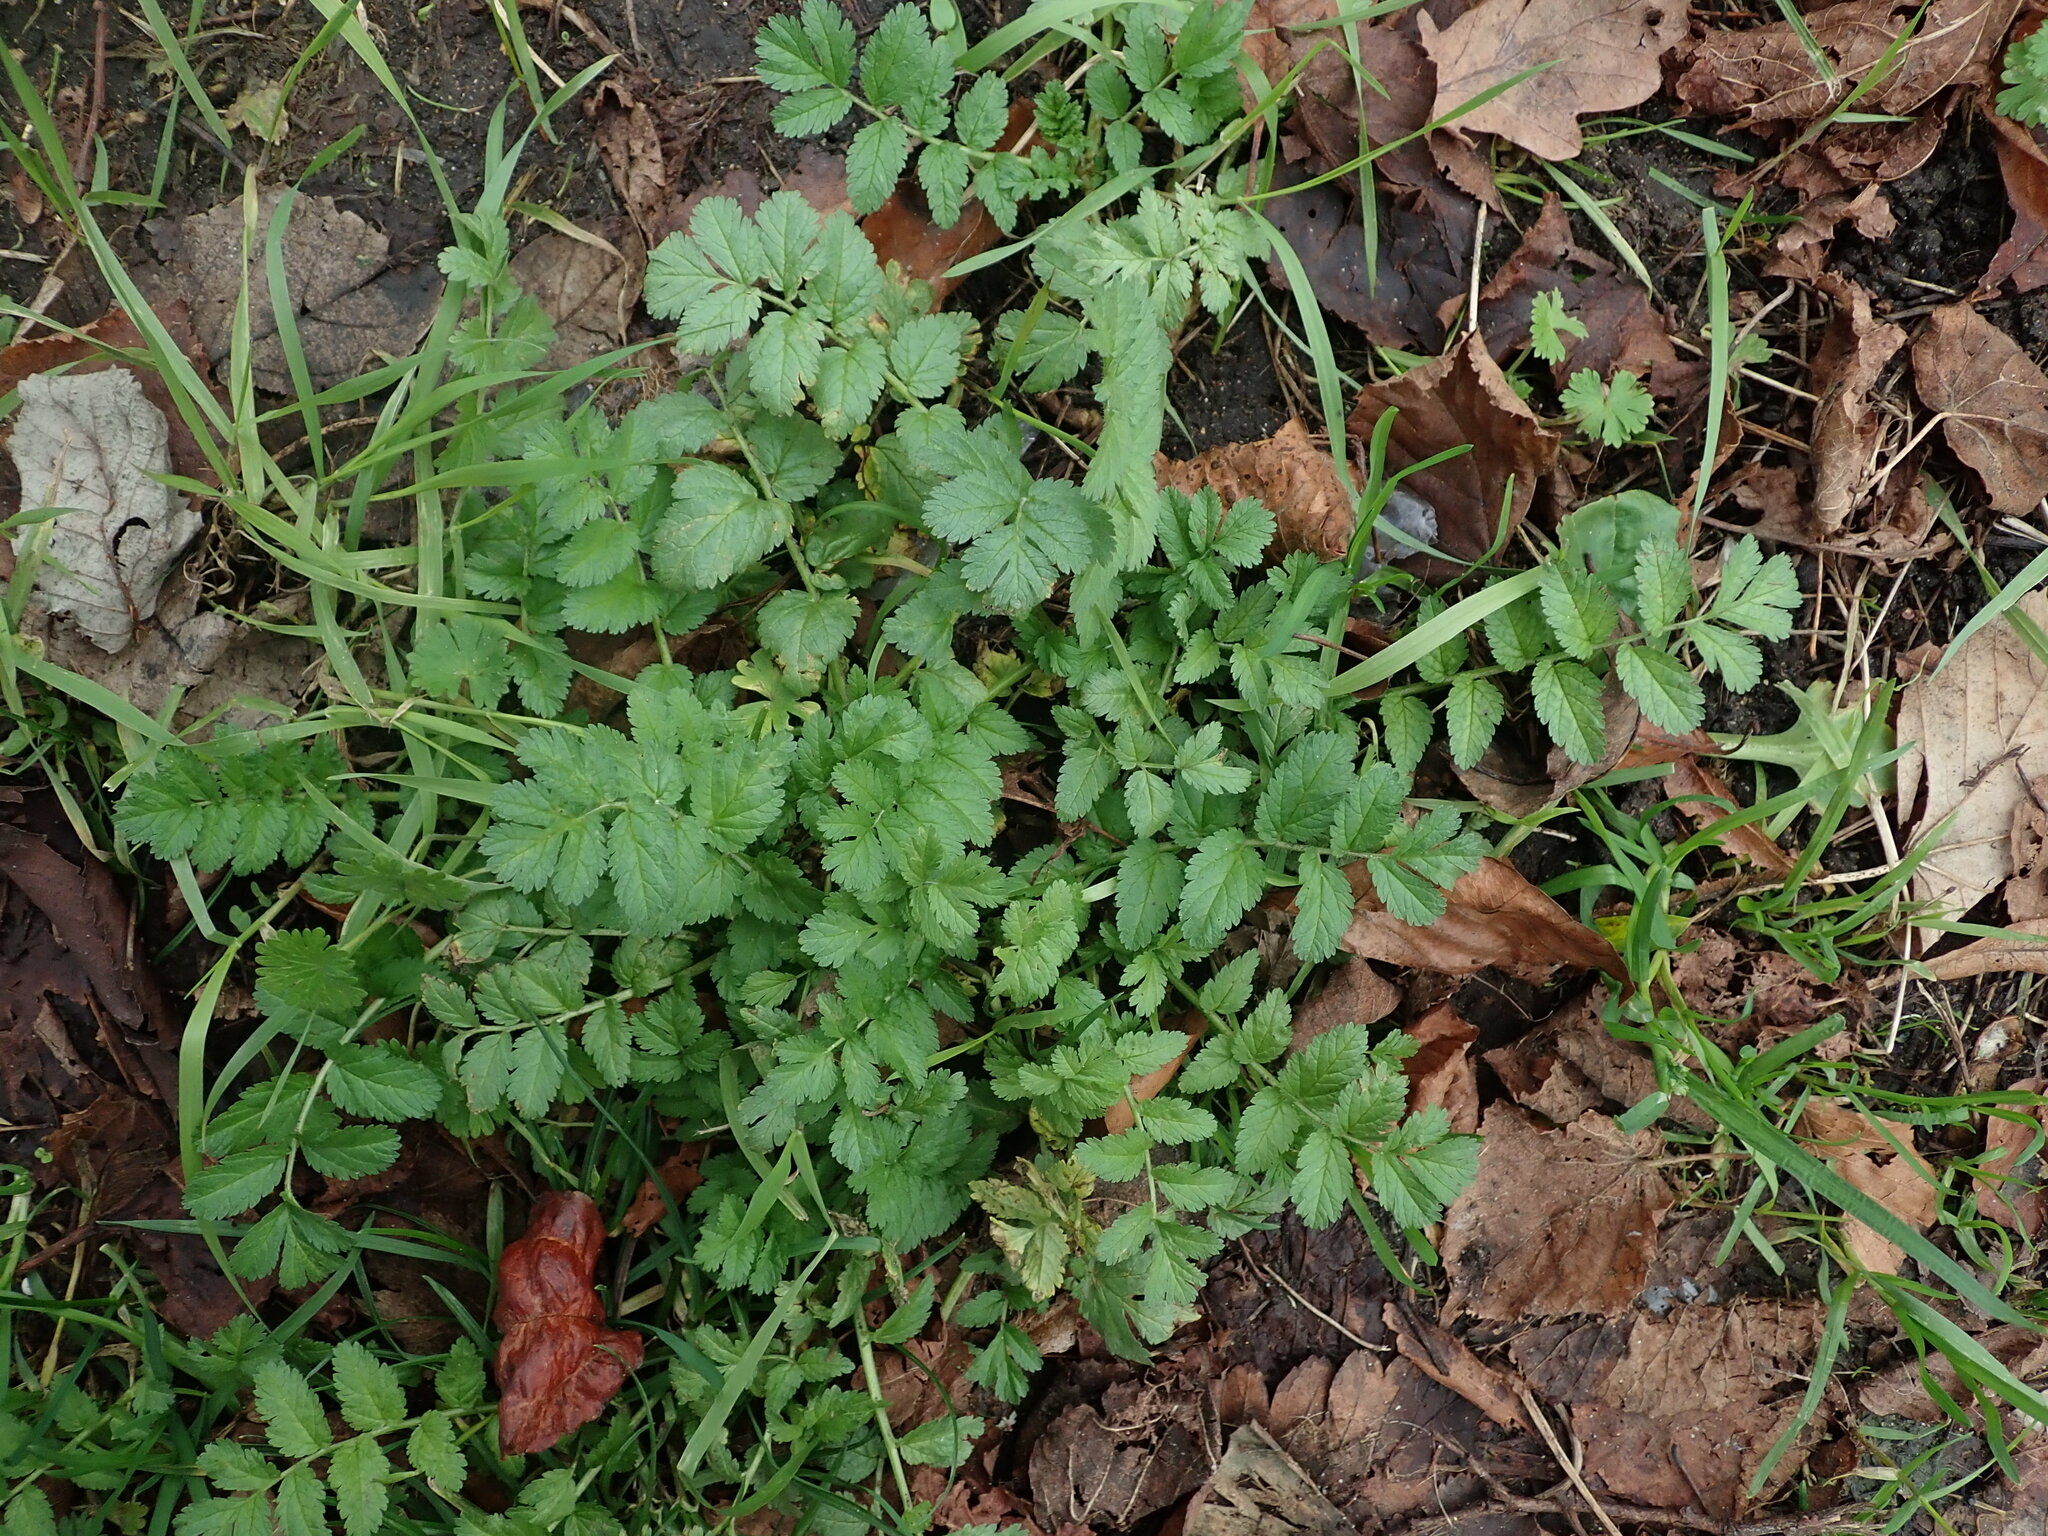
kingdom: Plantae
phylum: Tracheophyta
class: Magnoliopsida
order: Geraniales
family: Geraniaceae
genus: Erodium
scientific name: Erodium moschatum
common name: Musk stork's-bill
